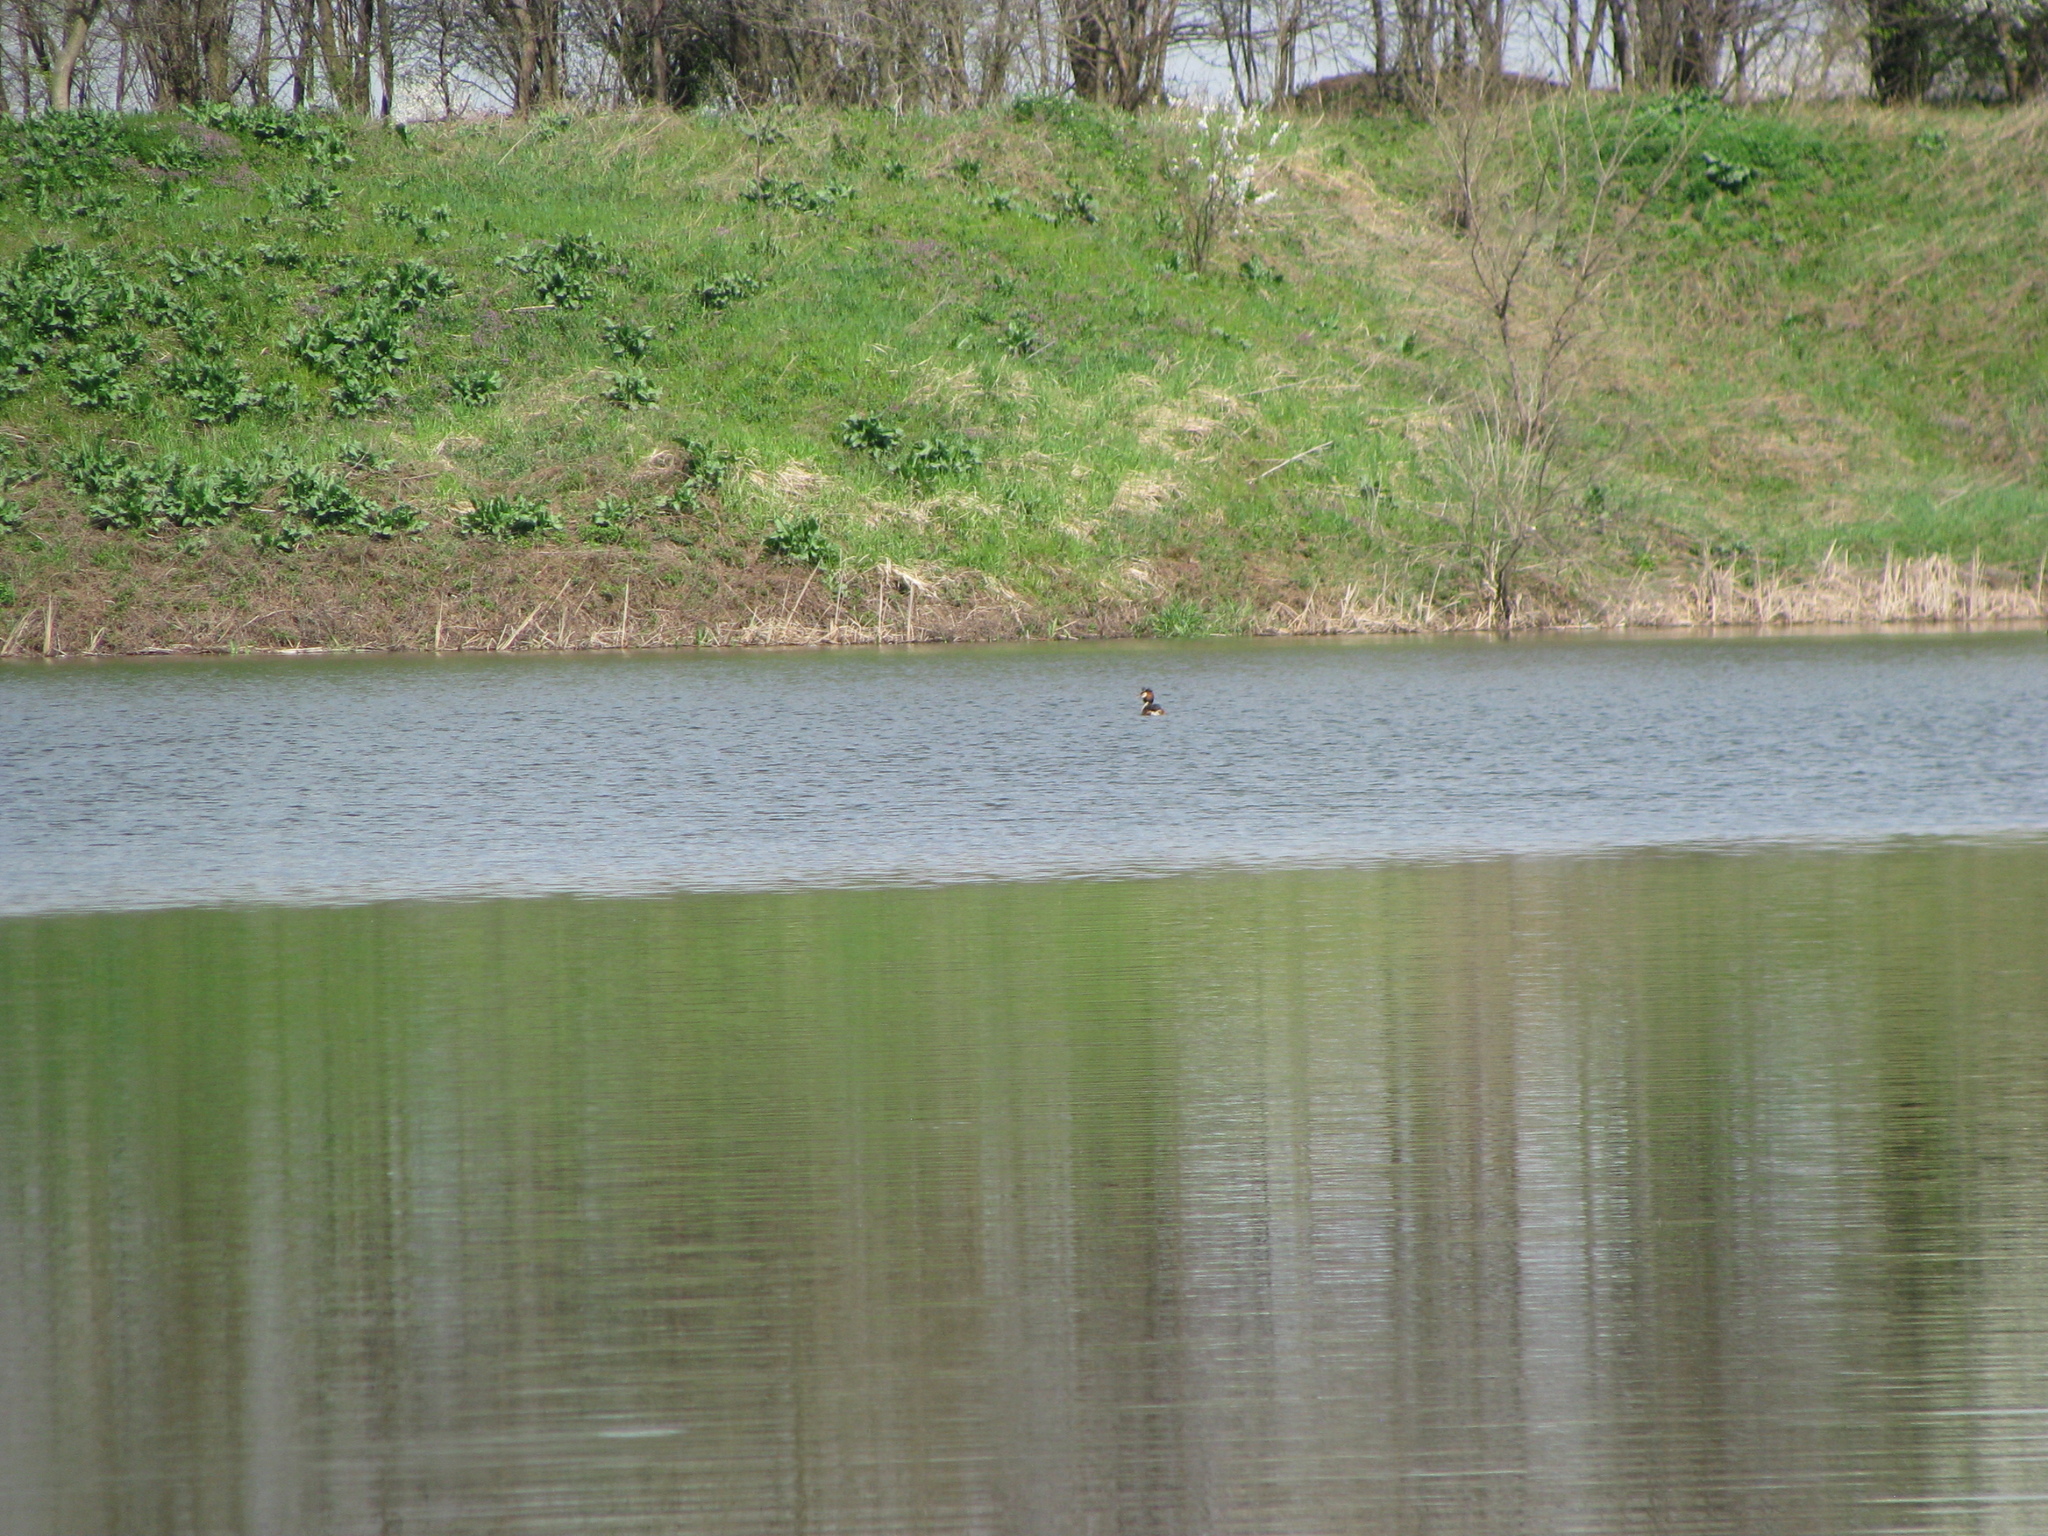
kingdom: Animalia
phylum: Chordata
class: Aves
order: Podicipediformes
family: Podicipedidae
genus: Podiceps
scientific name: Podiceps cristatus
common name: Great crested grebe
